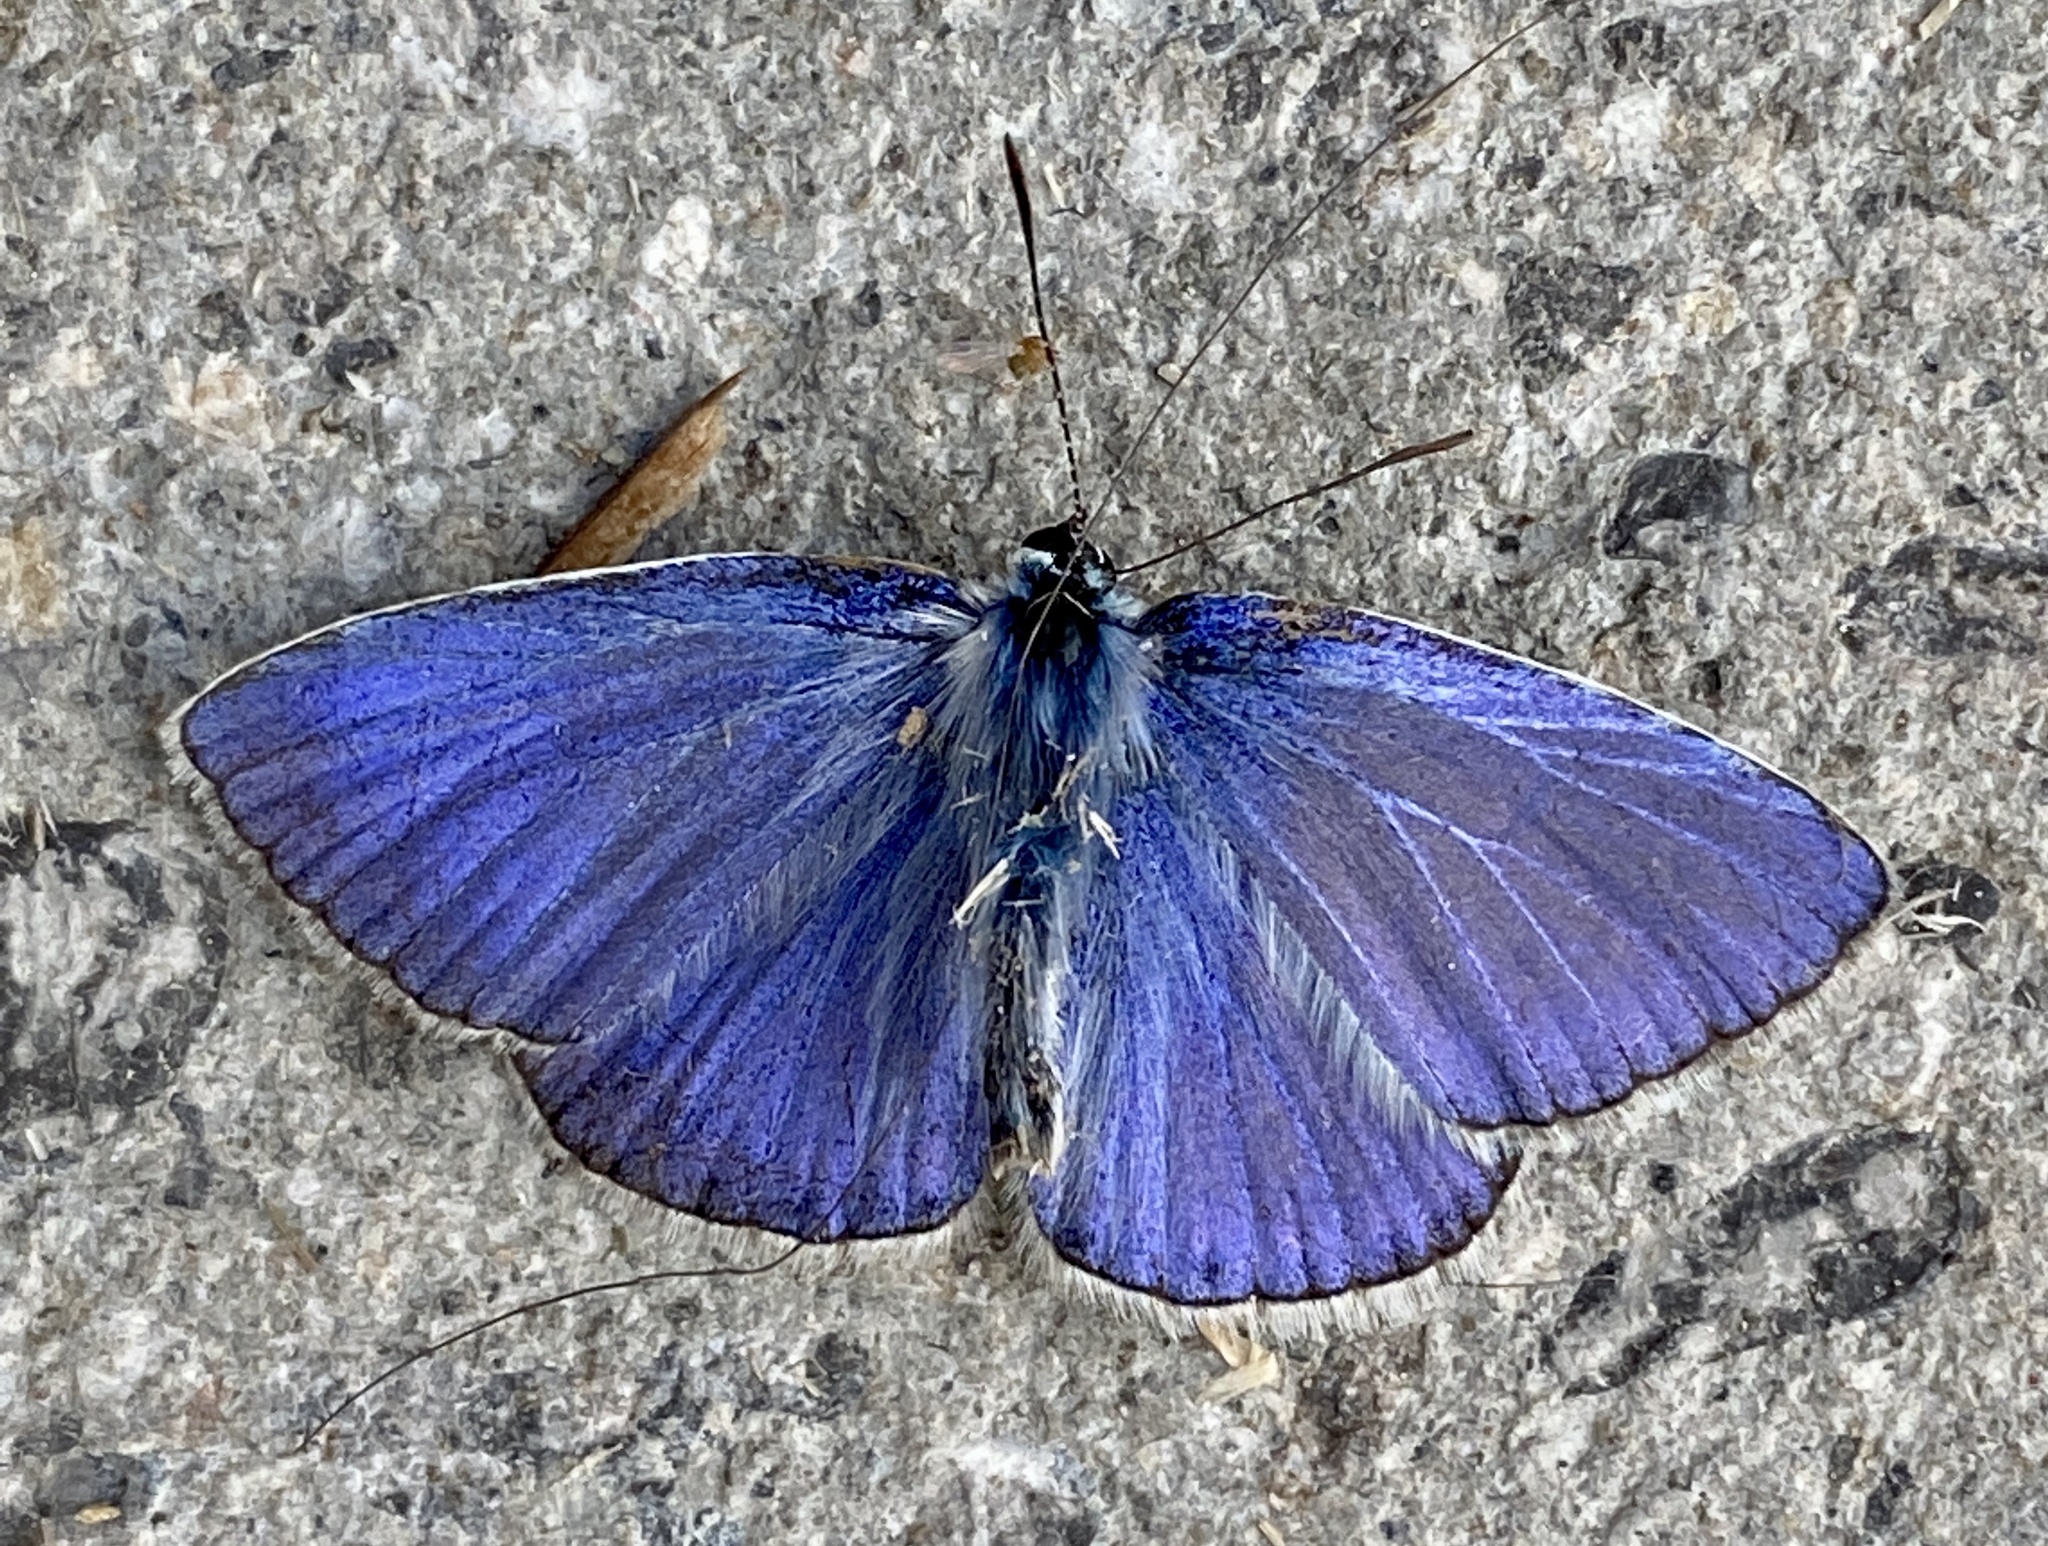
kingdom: Animalia
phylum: Arthropoda
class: Insecta
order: Lepidoptera
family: Lycaenidae
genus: Polyommatus
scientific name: Polyommatus icarus
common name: Common blue
